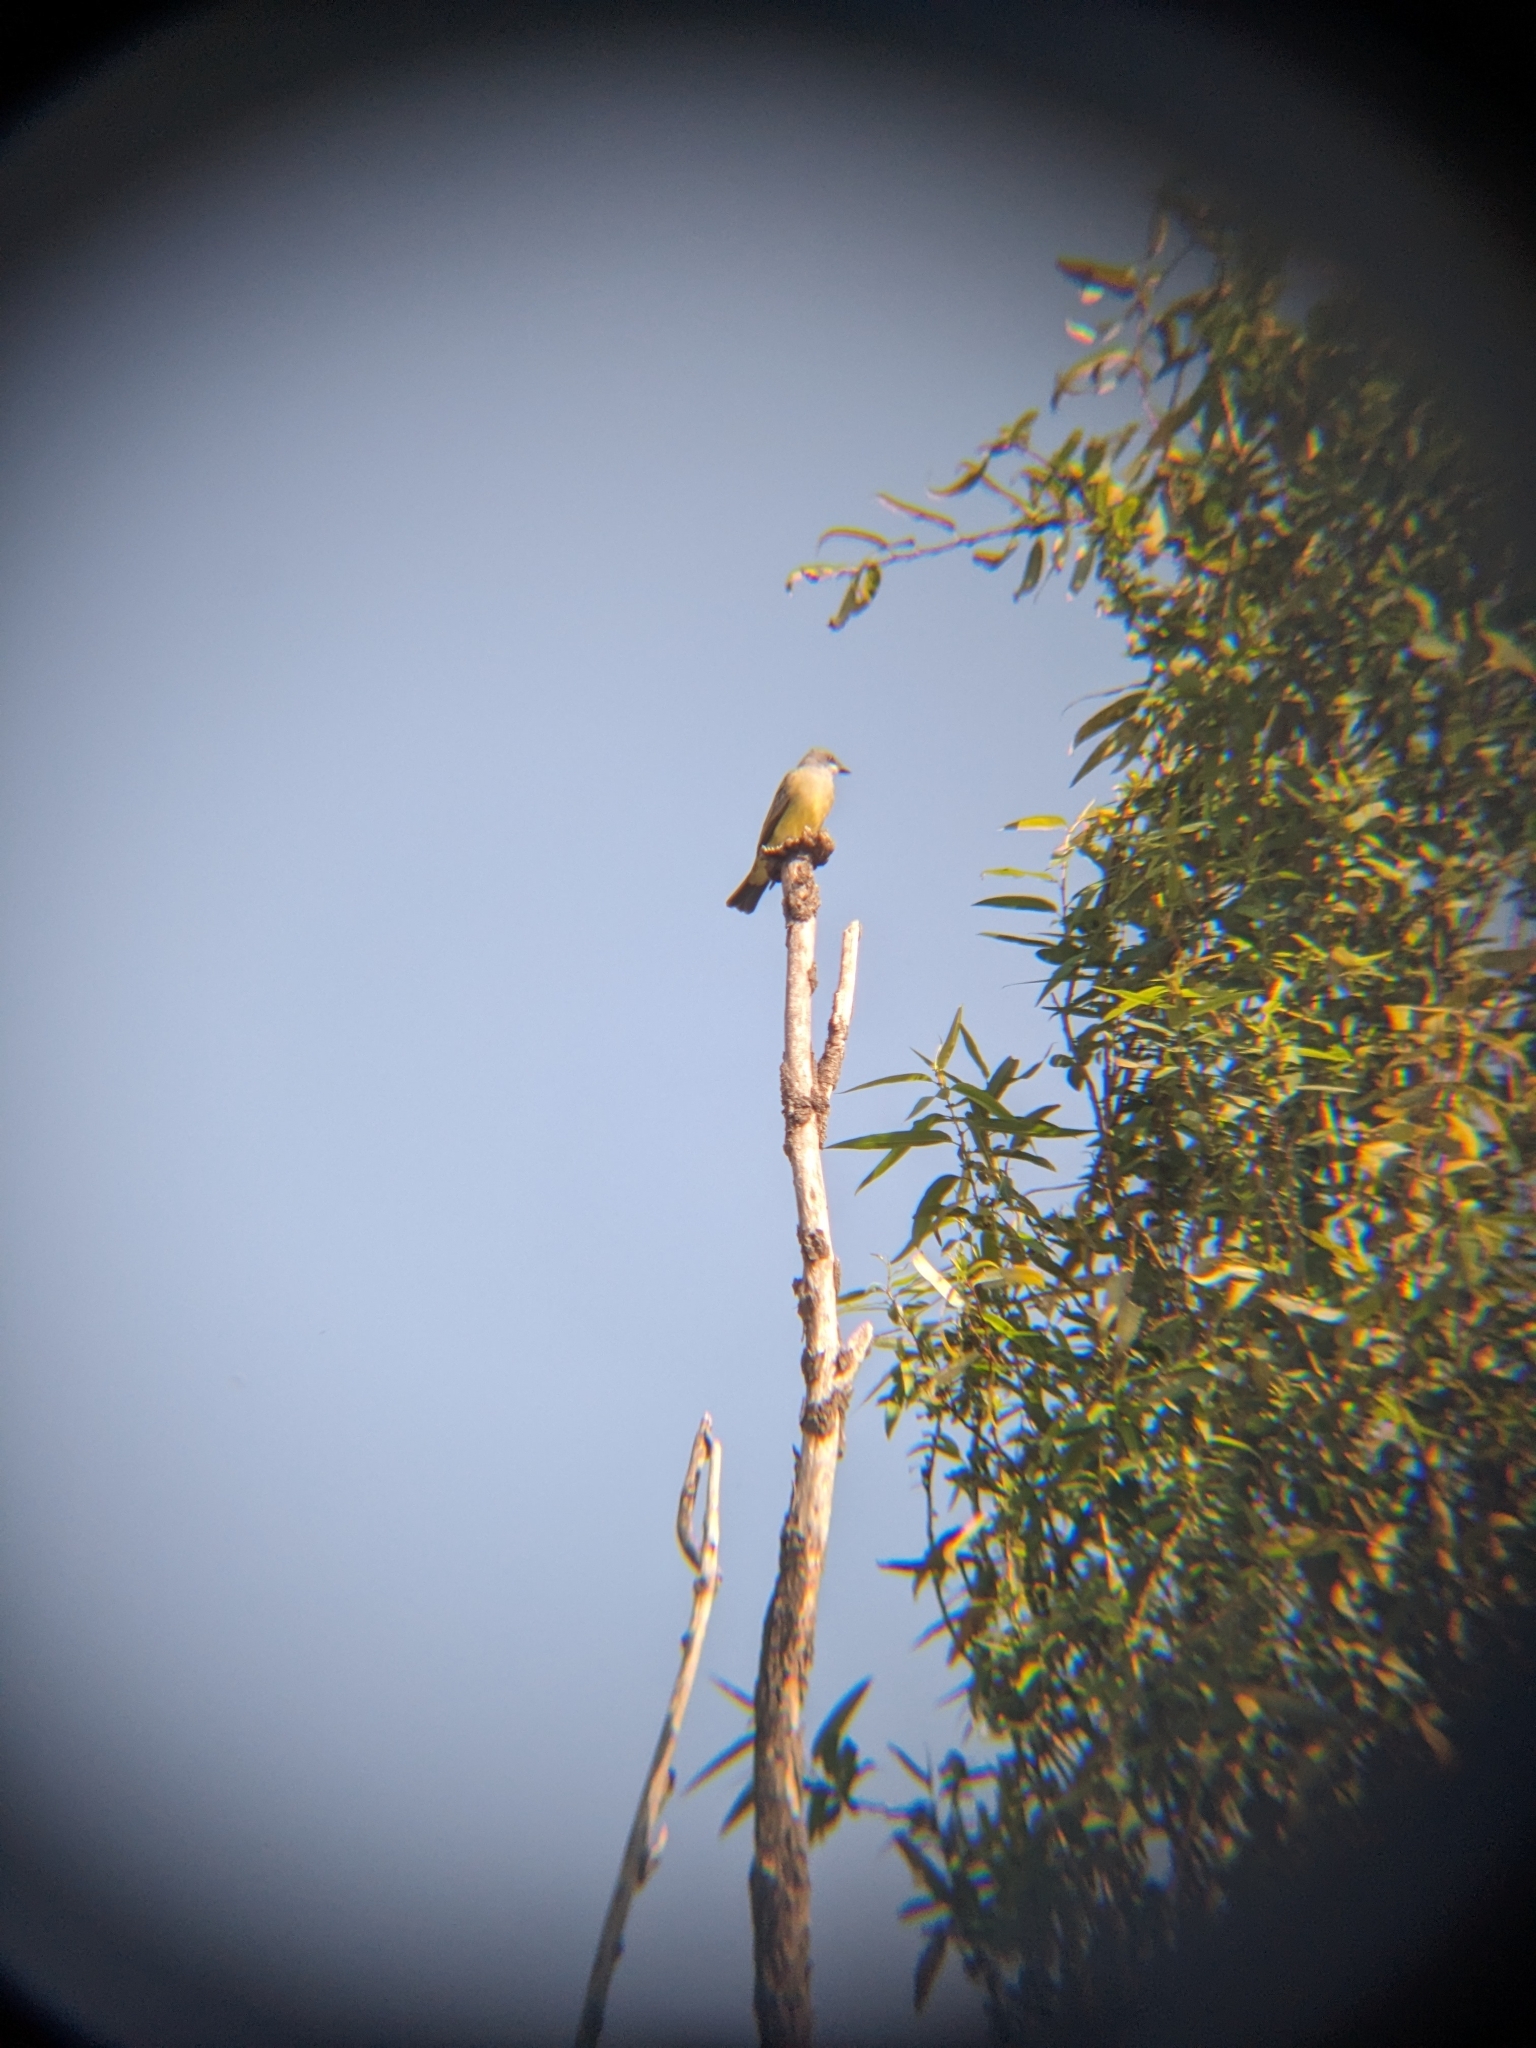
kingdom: Animalia
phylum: Chordata
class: Aves
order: Passeriformes
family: Tyrannidae
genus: Tyrannus
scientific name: Tyrannus vociferans
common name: Cassin's kingbird
